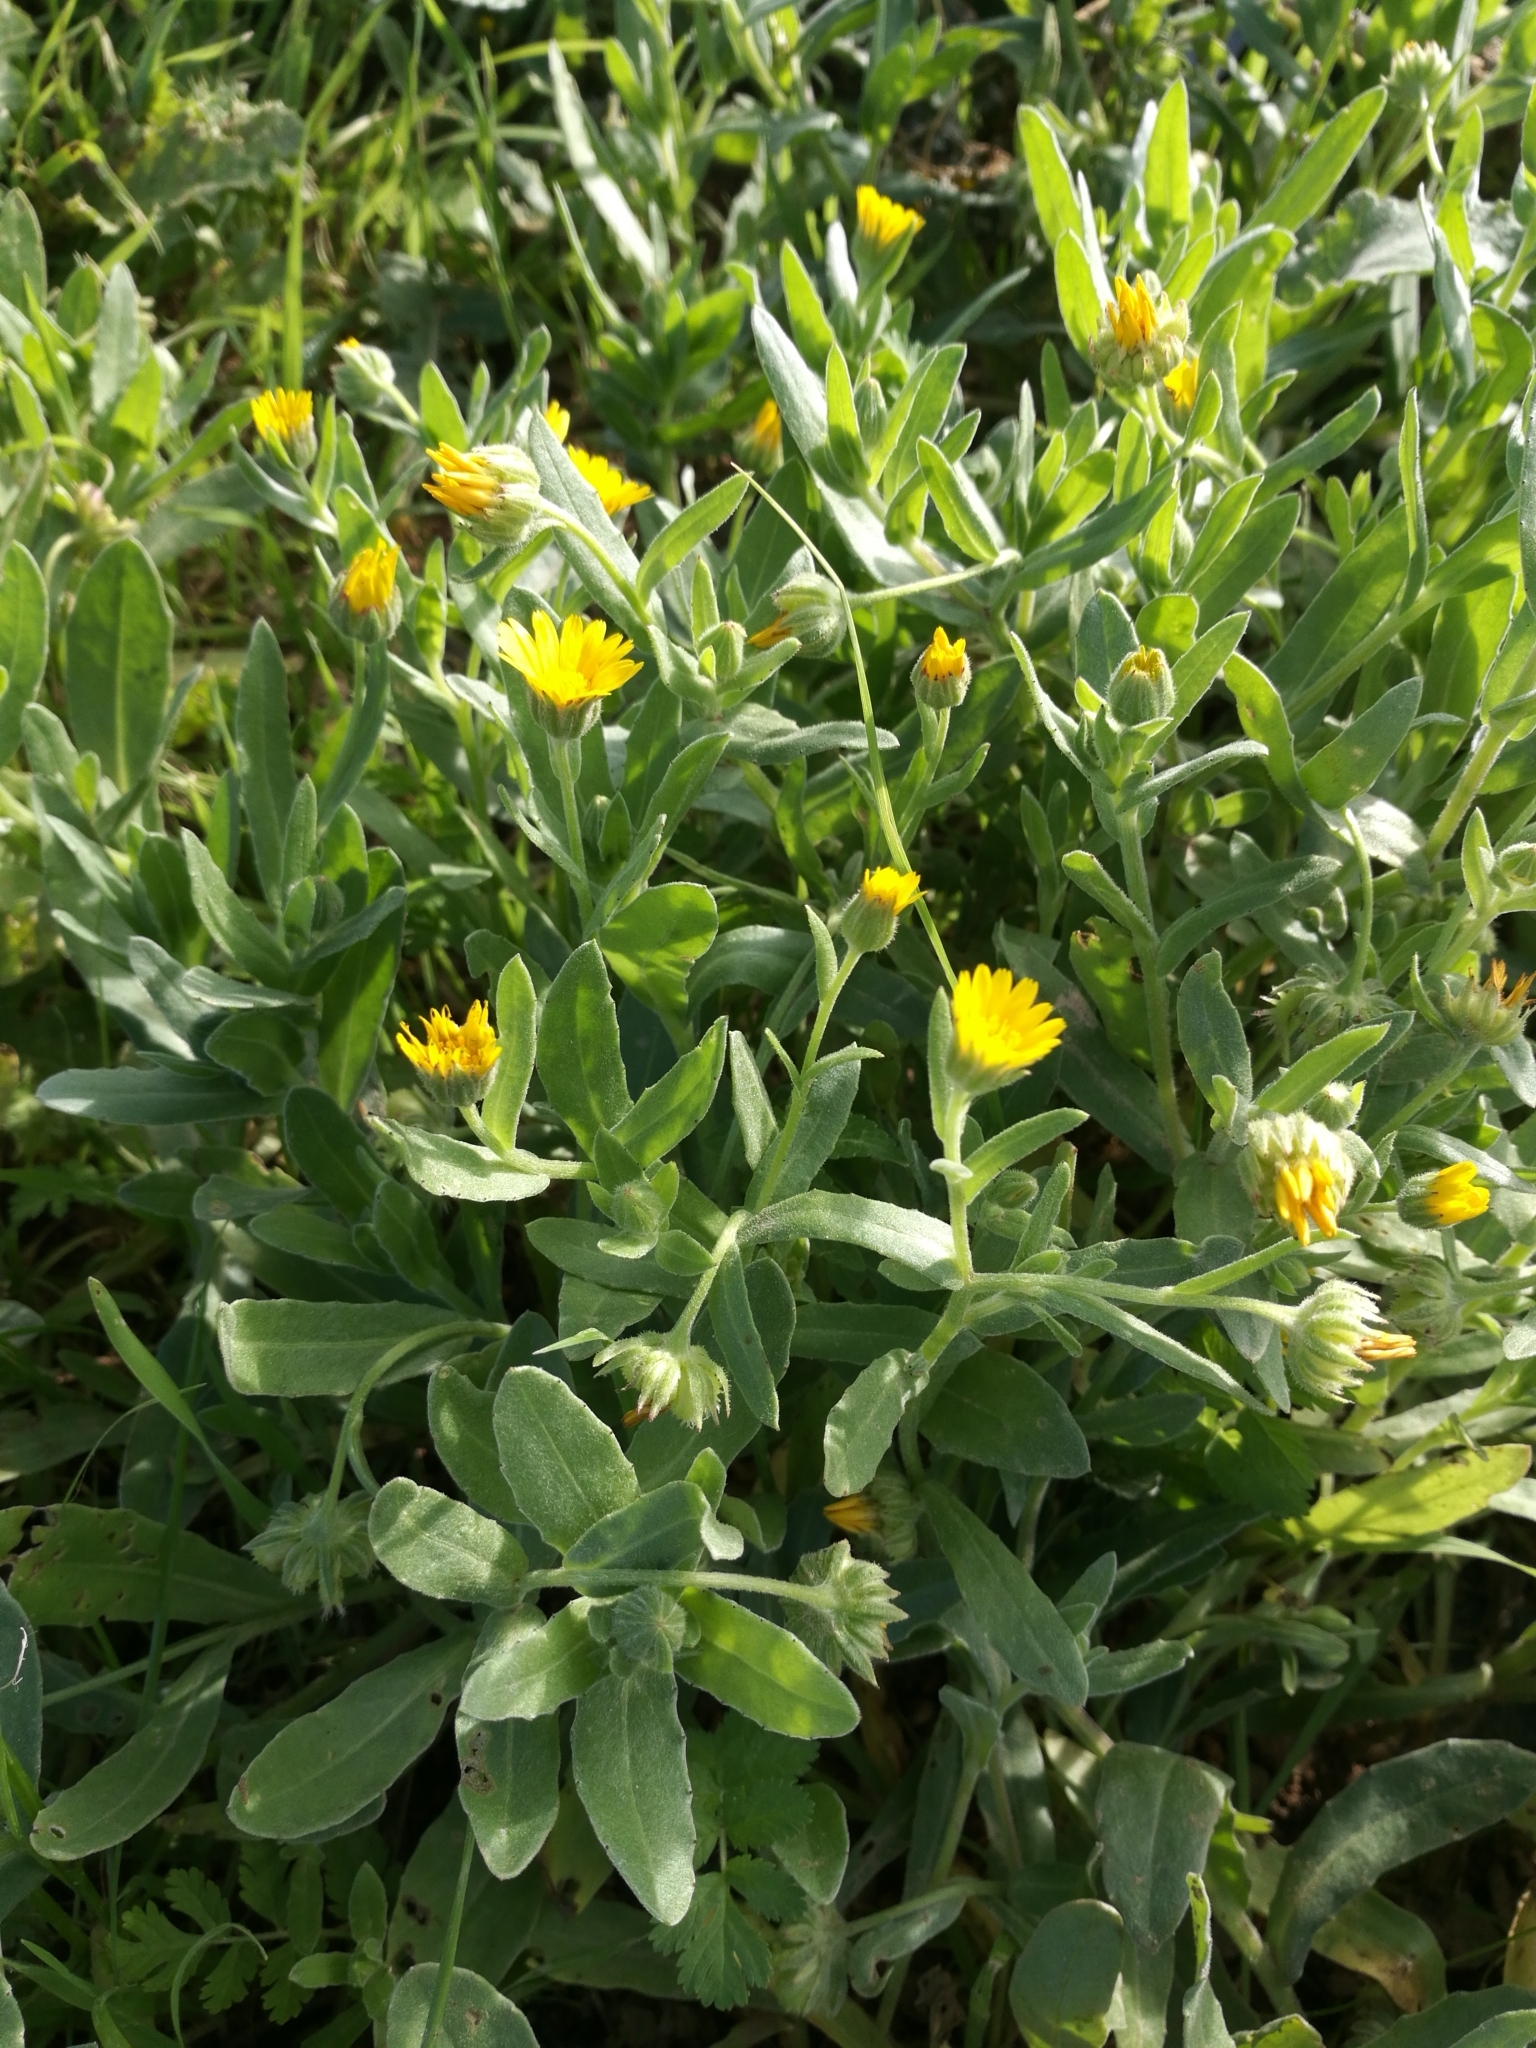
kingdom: Plantae
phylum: Tracheophyta
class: Magnoliopsida
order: Asterales
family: Asteraceae
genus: Calendula
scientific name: Calendula arvensis
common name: Field marigold
